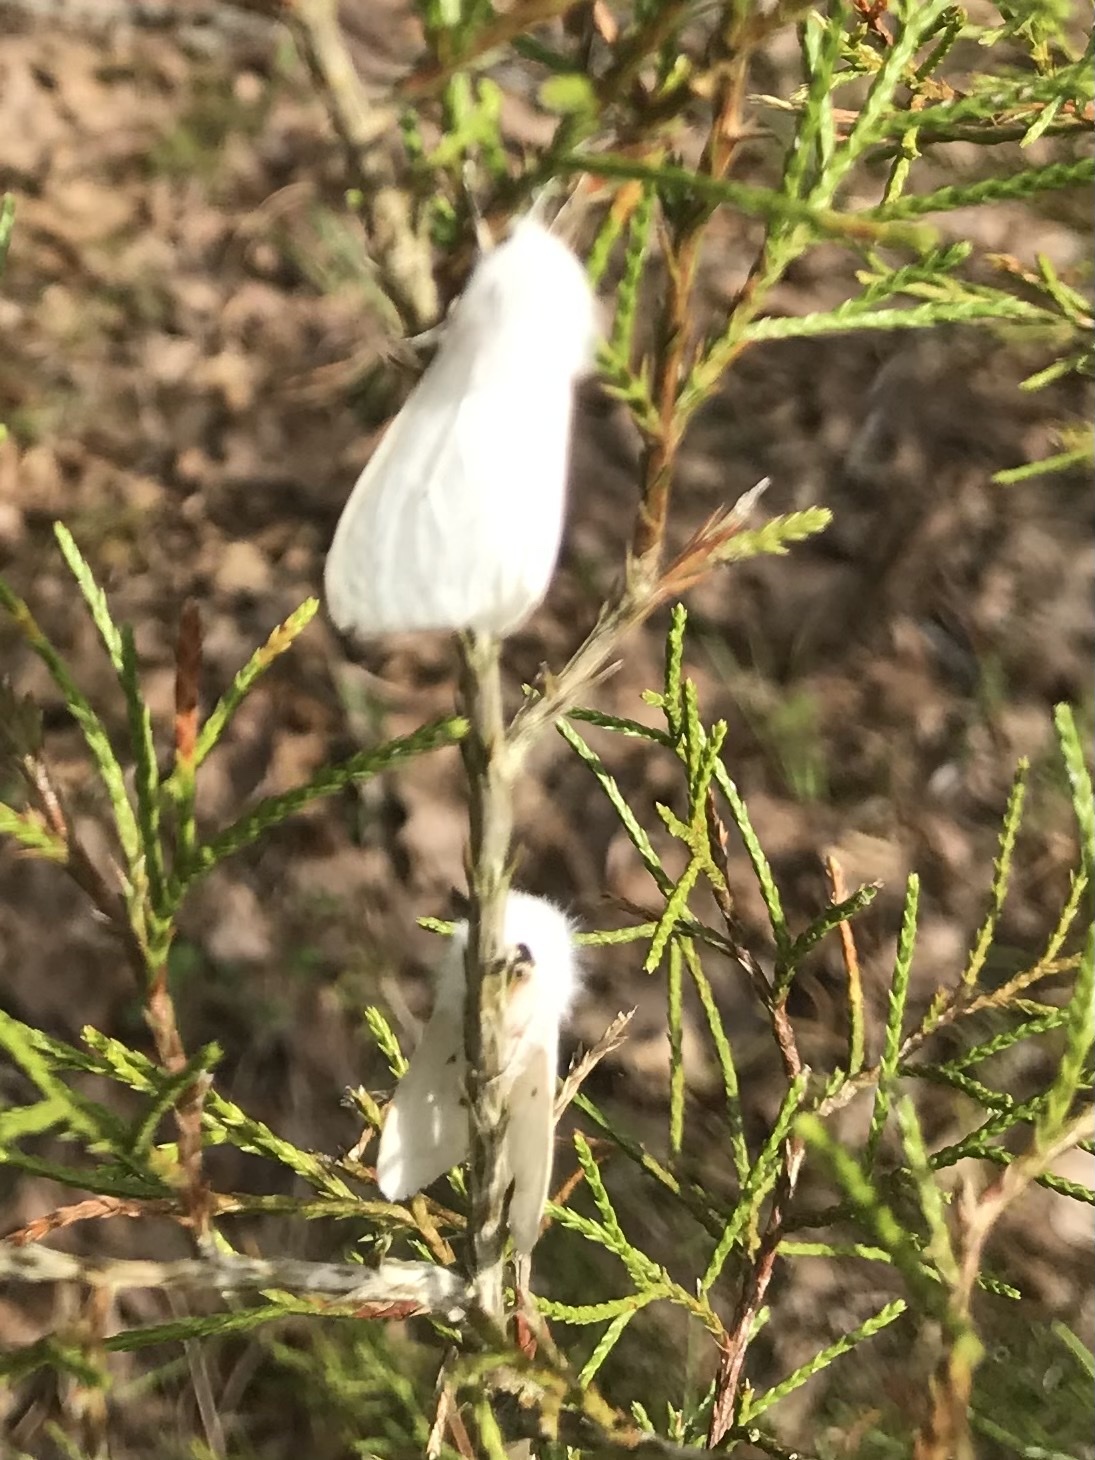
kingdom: Animalia
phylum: Arthropoda
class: Insecta
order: Lepidoptera
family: Erebidae
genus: Spilosoma
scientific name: Spilosoma congrua
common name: Agreeable tiger moth
